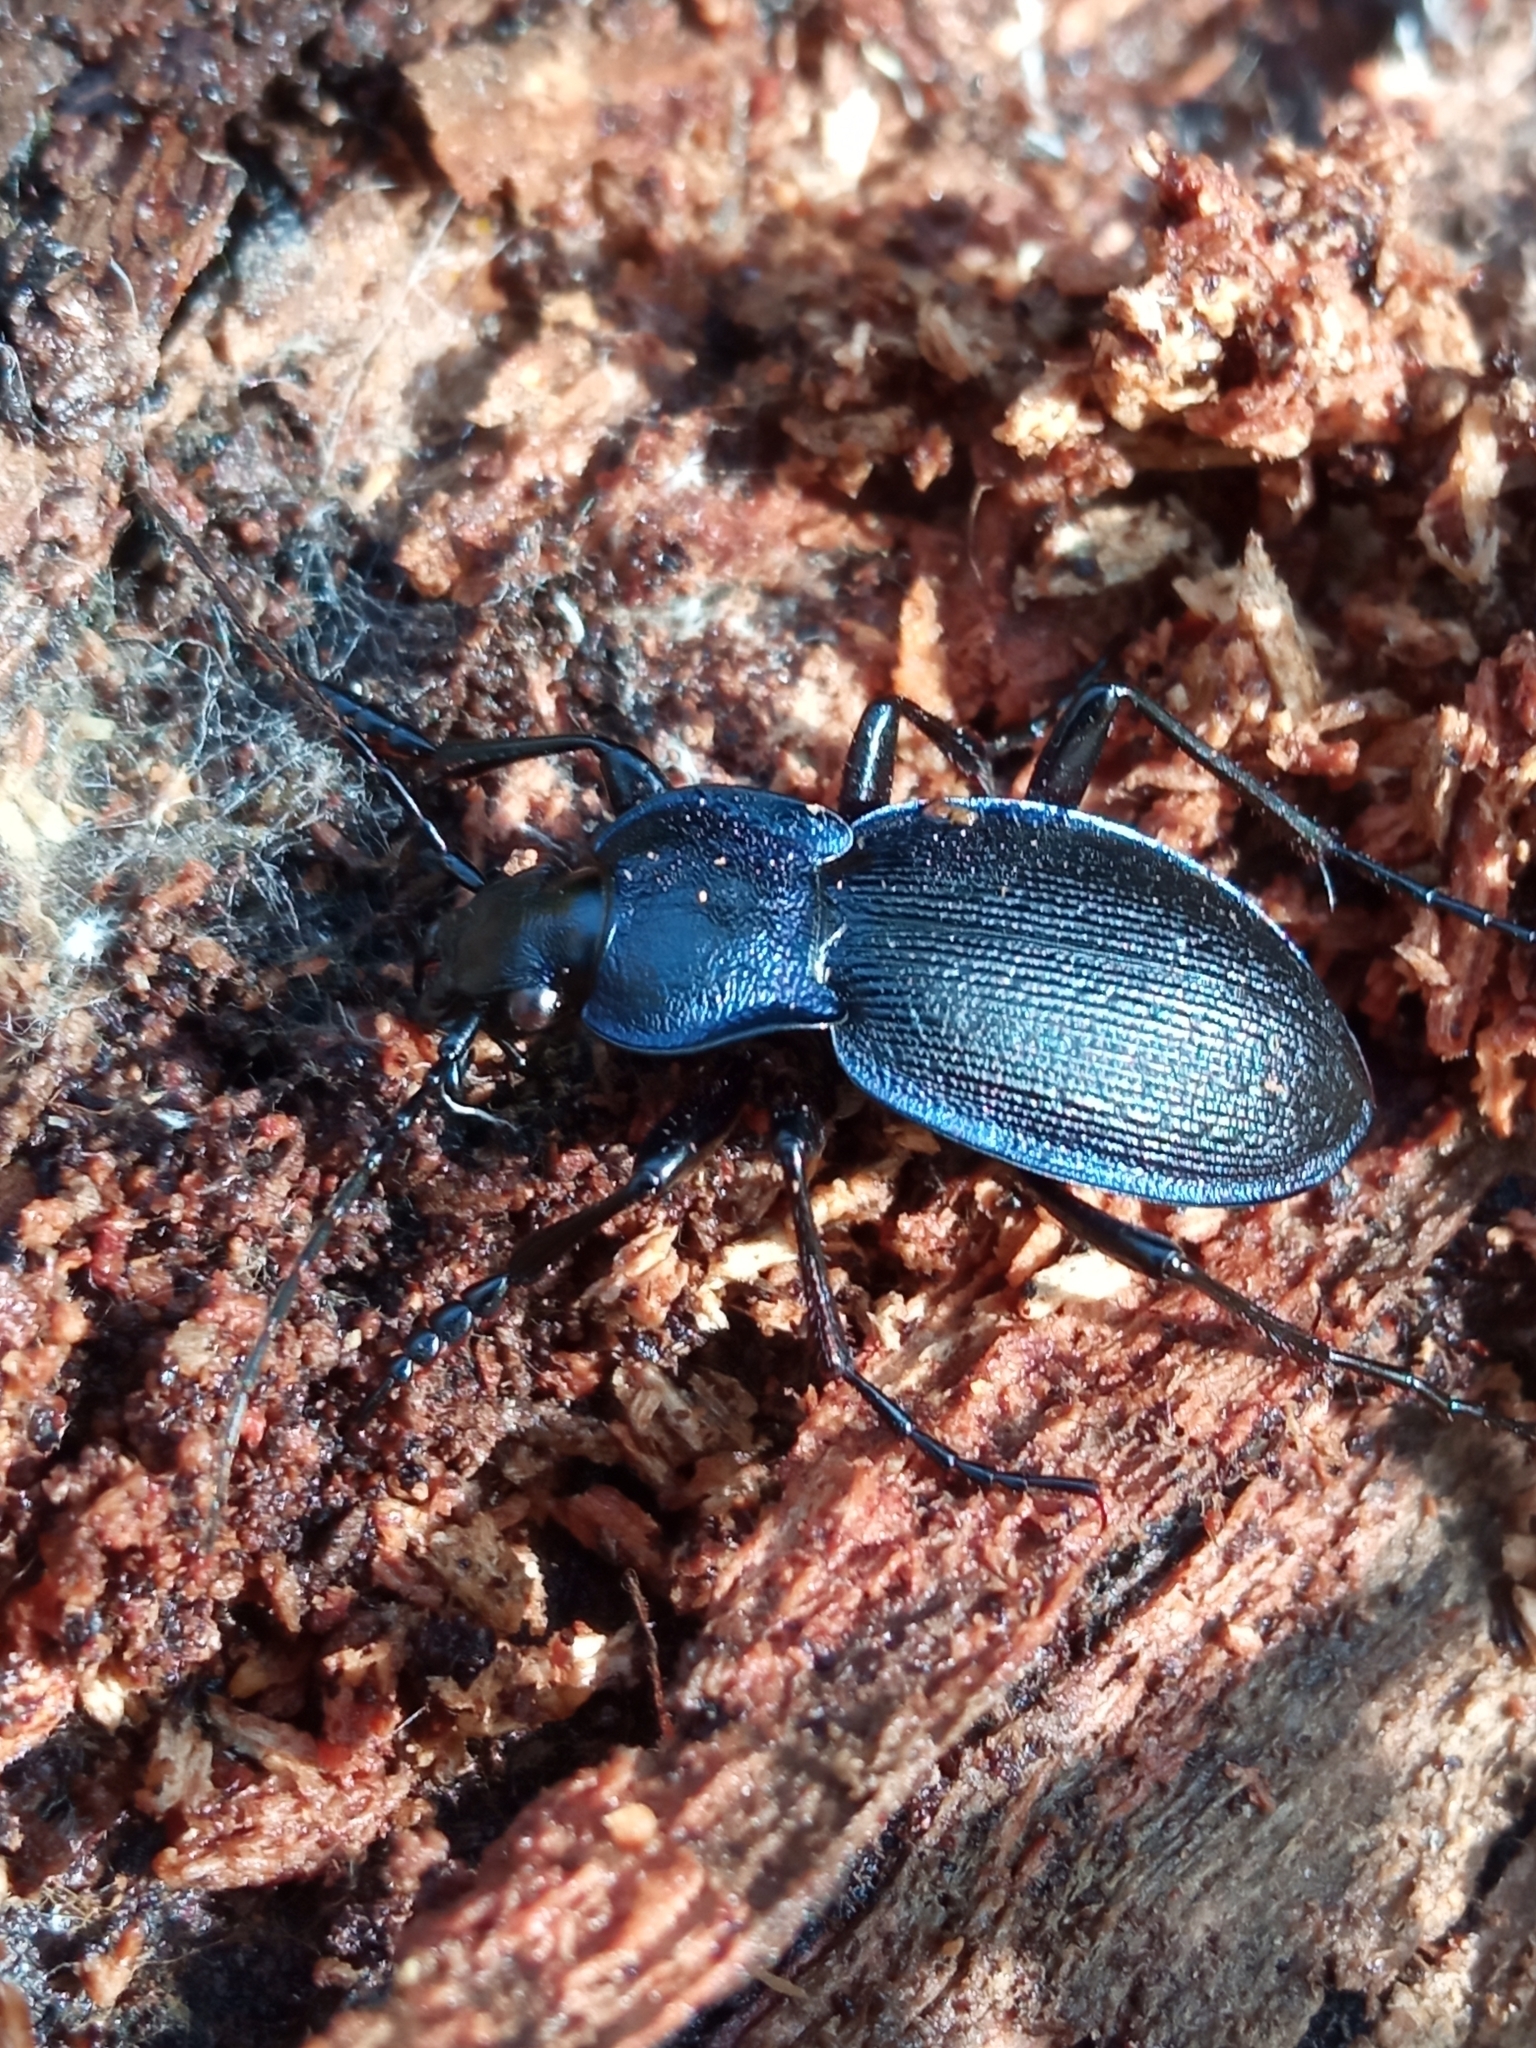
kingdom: Animalia
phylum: Arthropoda
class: Insecta
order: Coleoptera
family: Carabidae
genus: Carabus
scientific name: Carabus problematicus
